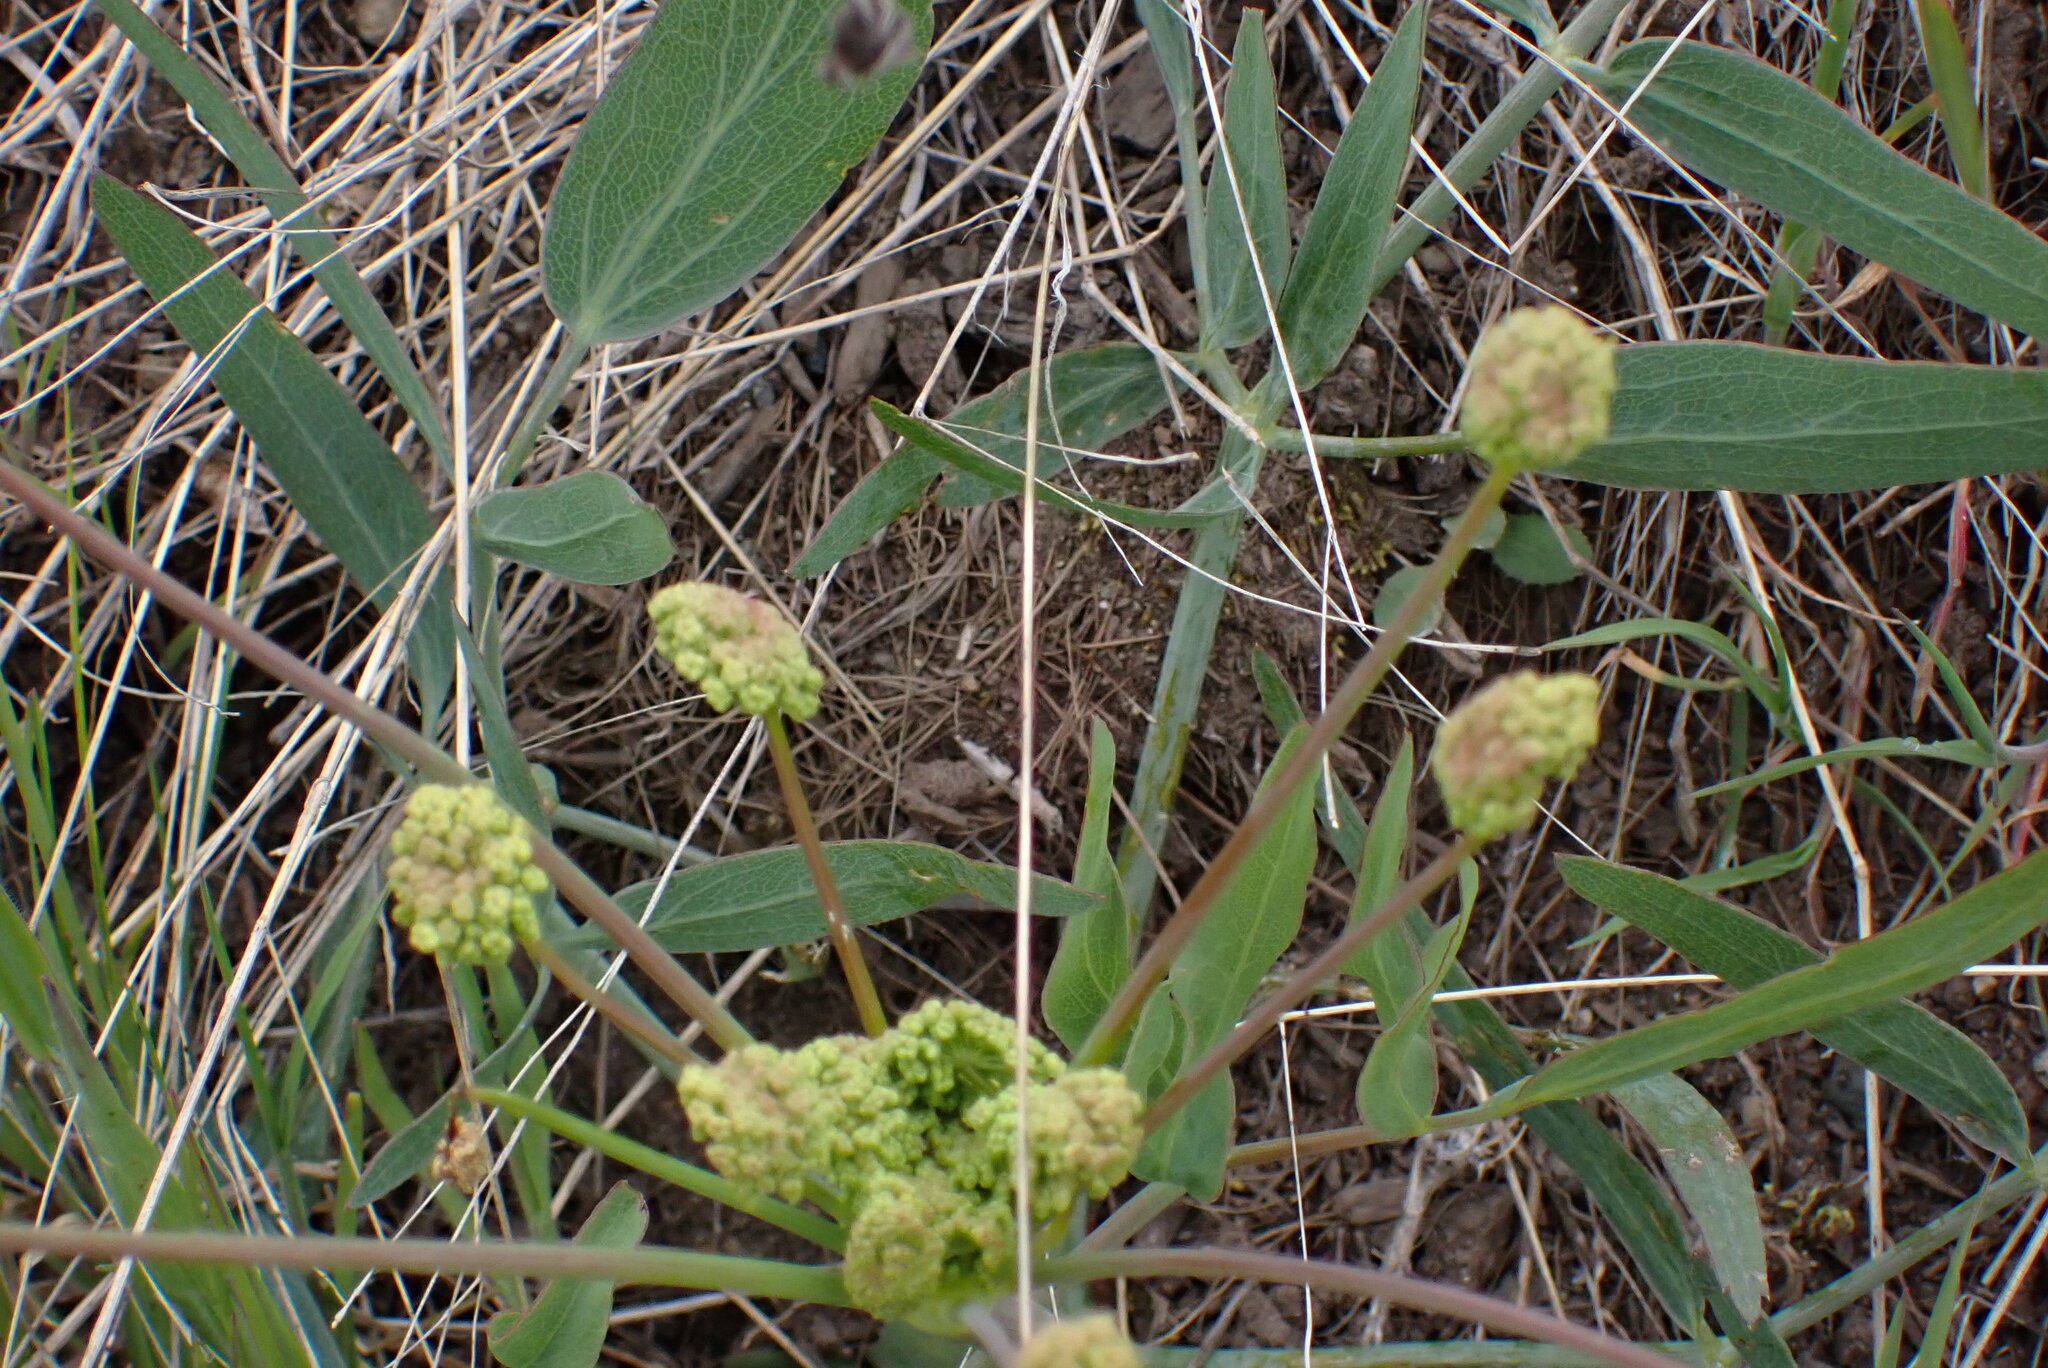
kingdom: Plantae
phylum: Tracheophyta
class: Magnoliopsida
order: Apiales
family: Apiaceae
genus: Lomatium
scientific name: Lomatium nudicaule
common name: Pestle lomatium
